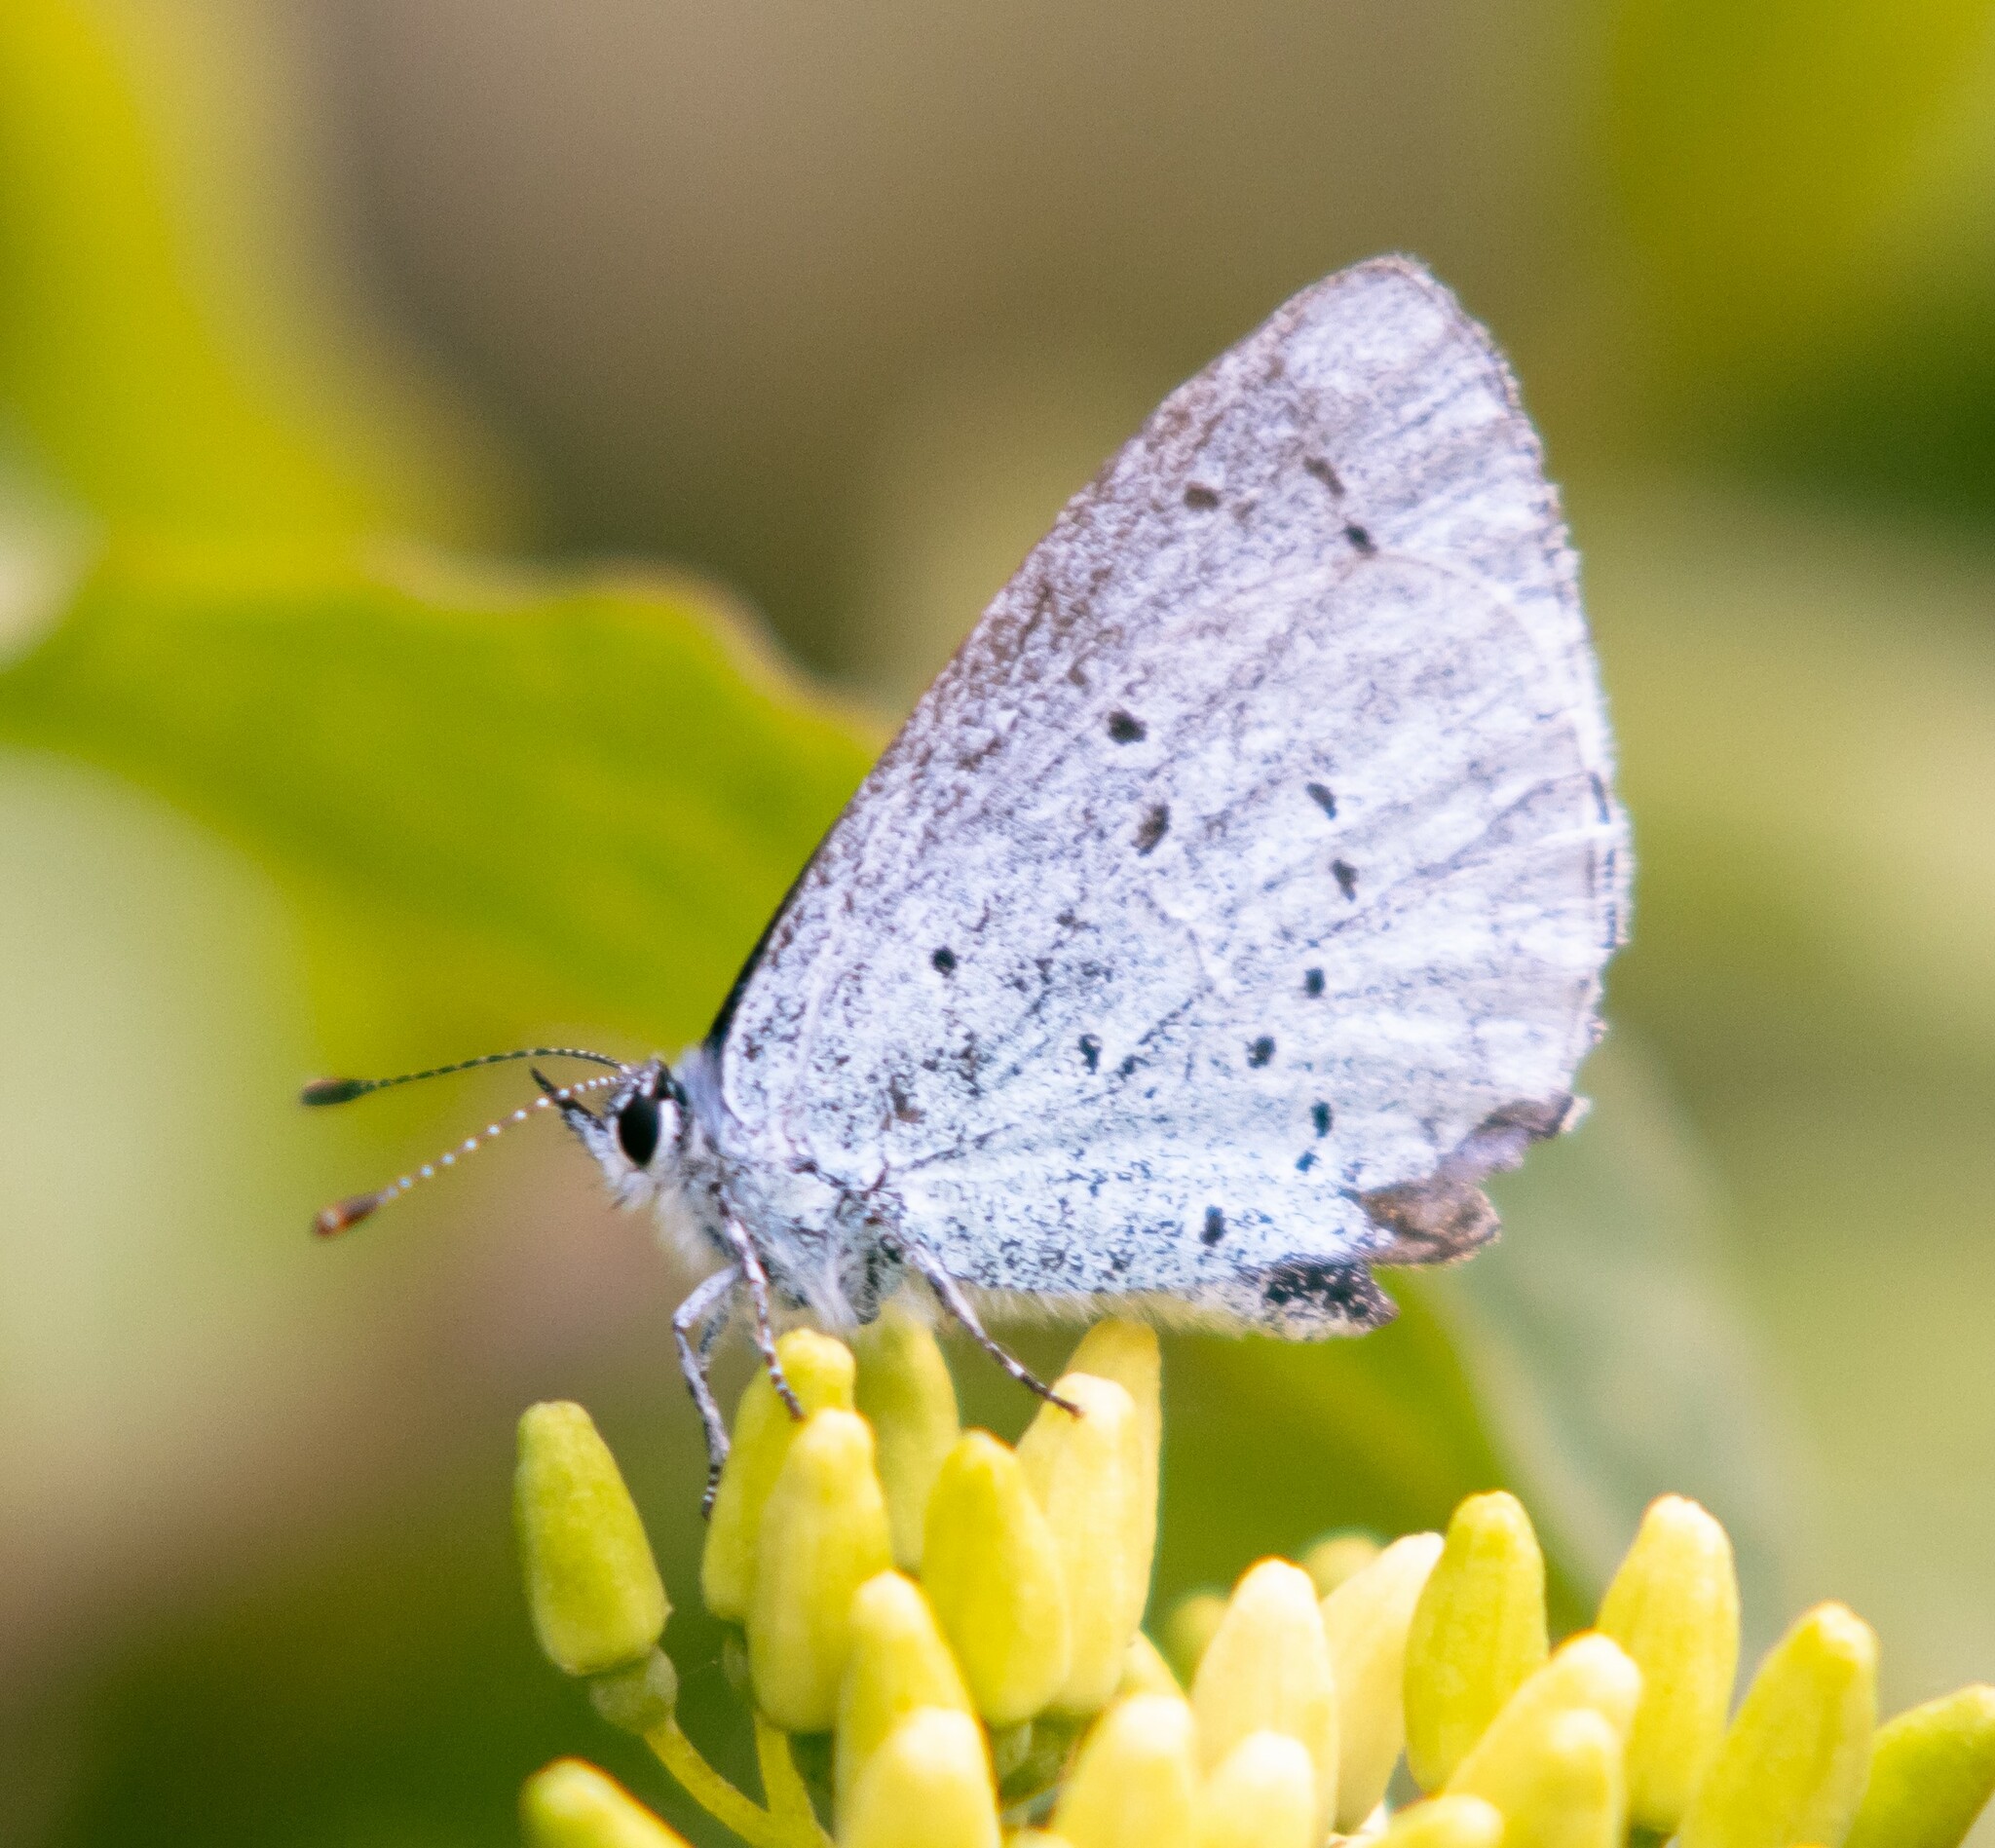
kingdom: Animalia
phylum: Arthropoda
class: Insecta
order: Lepidoptera
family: Lycaenidae
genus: Celastrina
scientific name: Celastrina argiolus
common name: Holly blue
